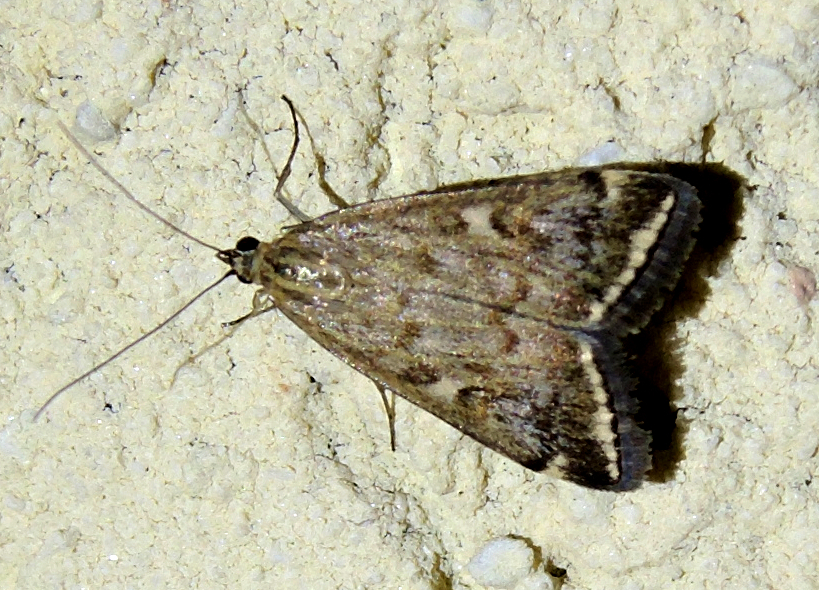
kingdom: Animalia
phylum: Arthropoda
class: Insecta
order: Lepidoptera
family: Crambidae
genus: Loxostege
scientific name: Loxostege sticticalis
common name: Crambid moth
